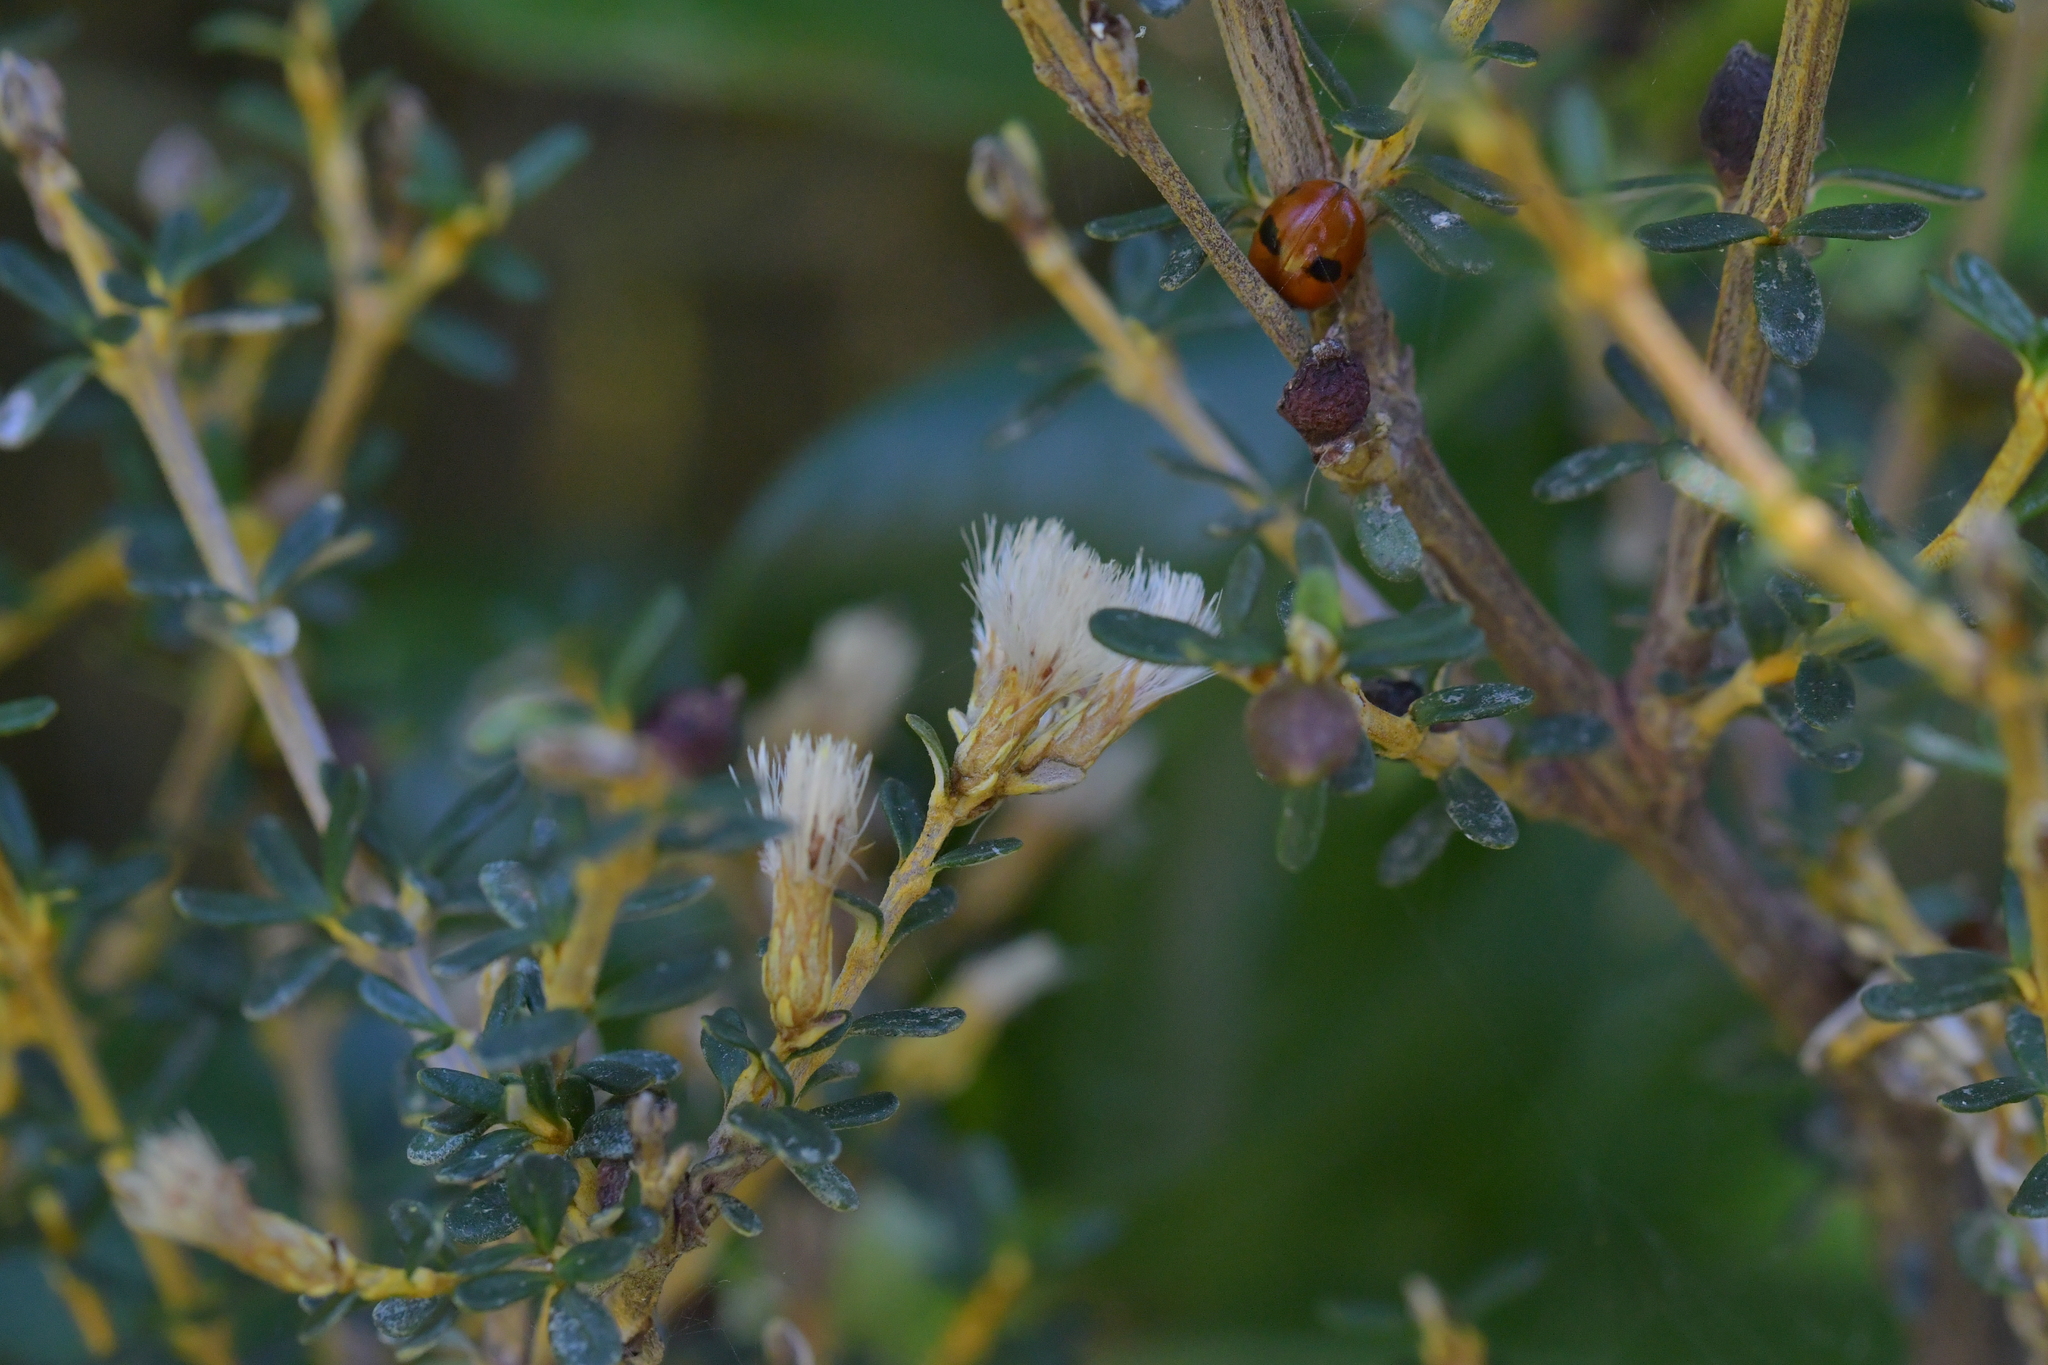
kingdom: Plantae
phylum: Tracheophyta
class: Magnoliopsida
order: Asterales
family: Asteraceae
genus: Olearia
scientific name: Olearia solandri
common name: Coastal daisybush
